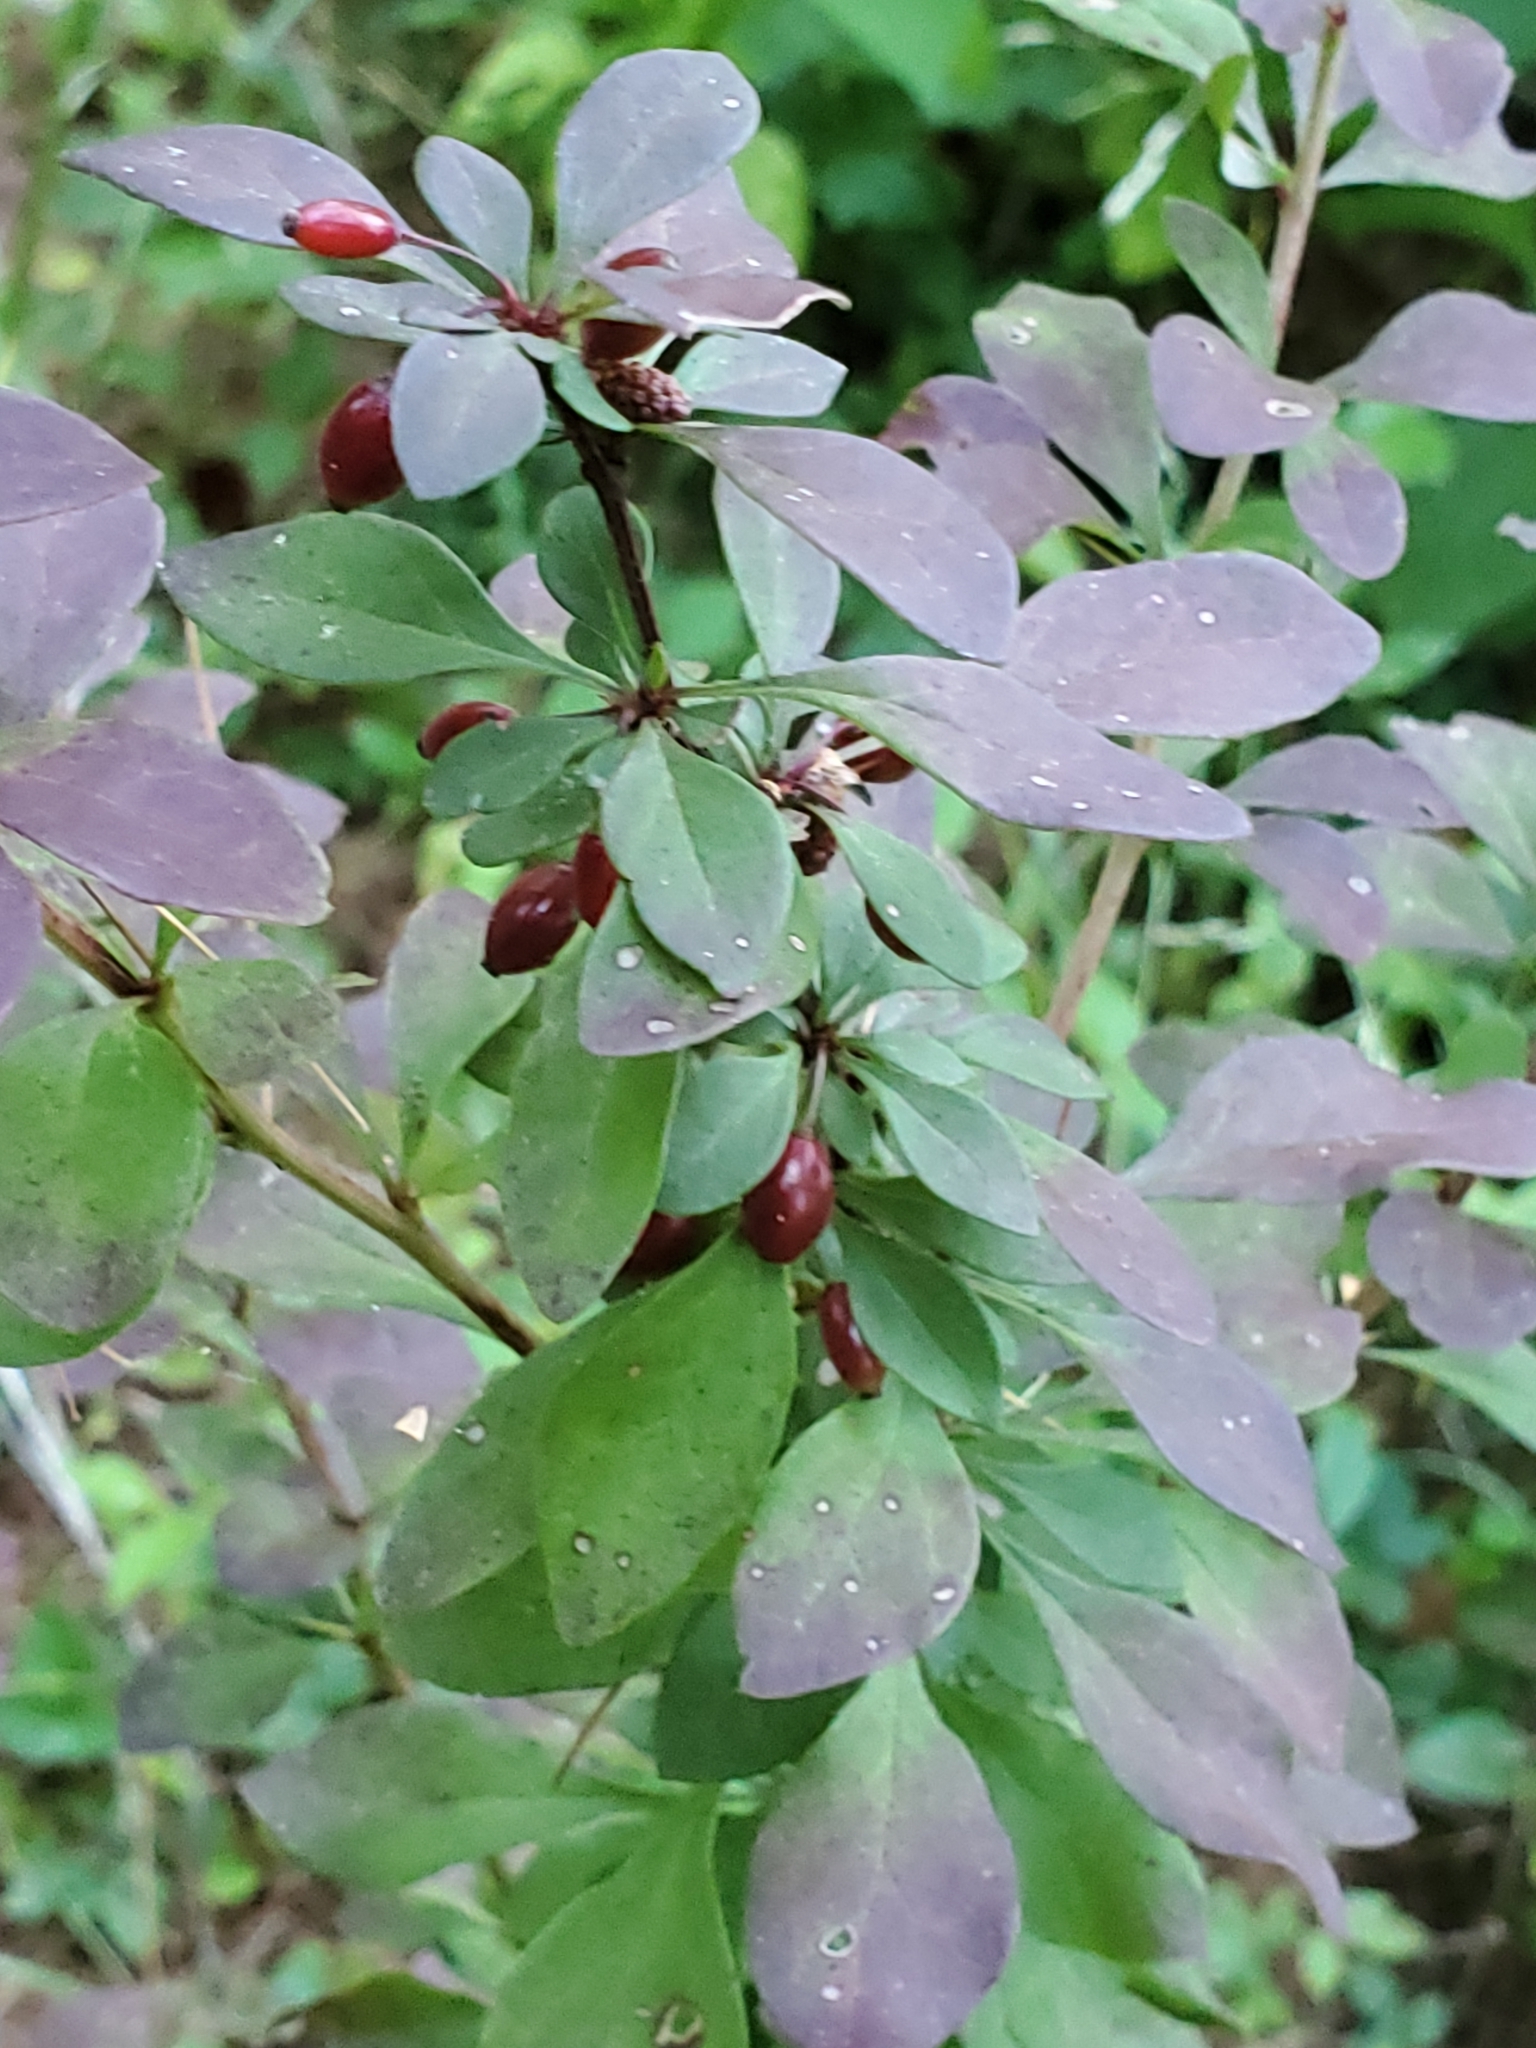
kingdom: Plantae
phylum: Tracheophyta
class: Magnoliopsida
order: Ranunculales
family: Berberidaceae
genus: Berberis
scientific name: Berberis thunbergii
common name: Japanese barberry
